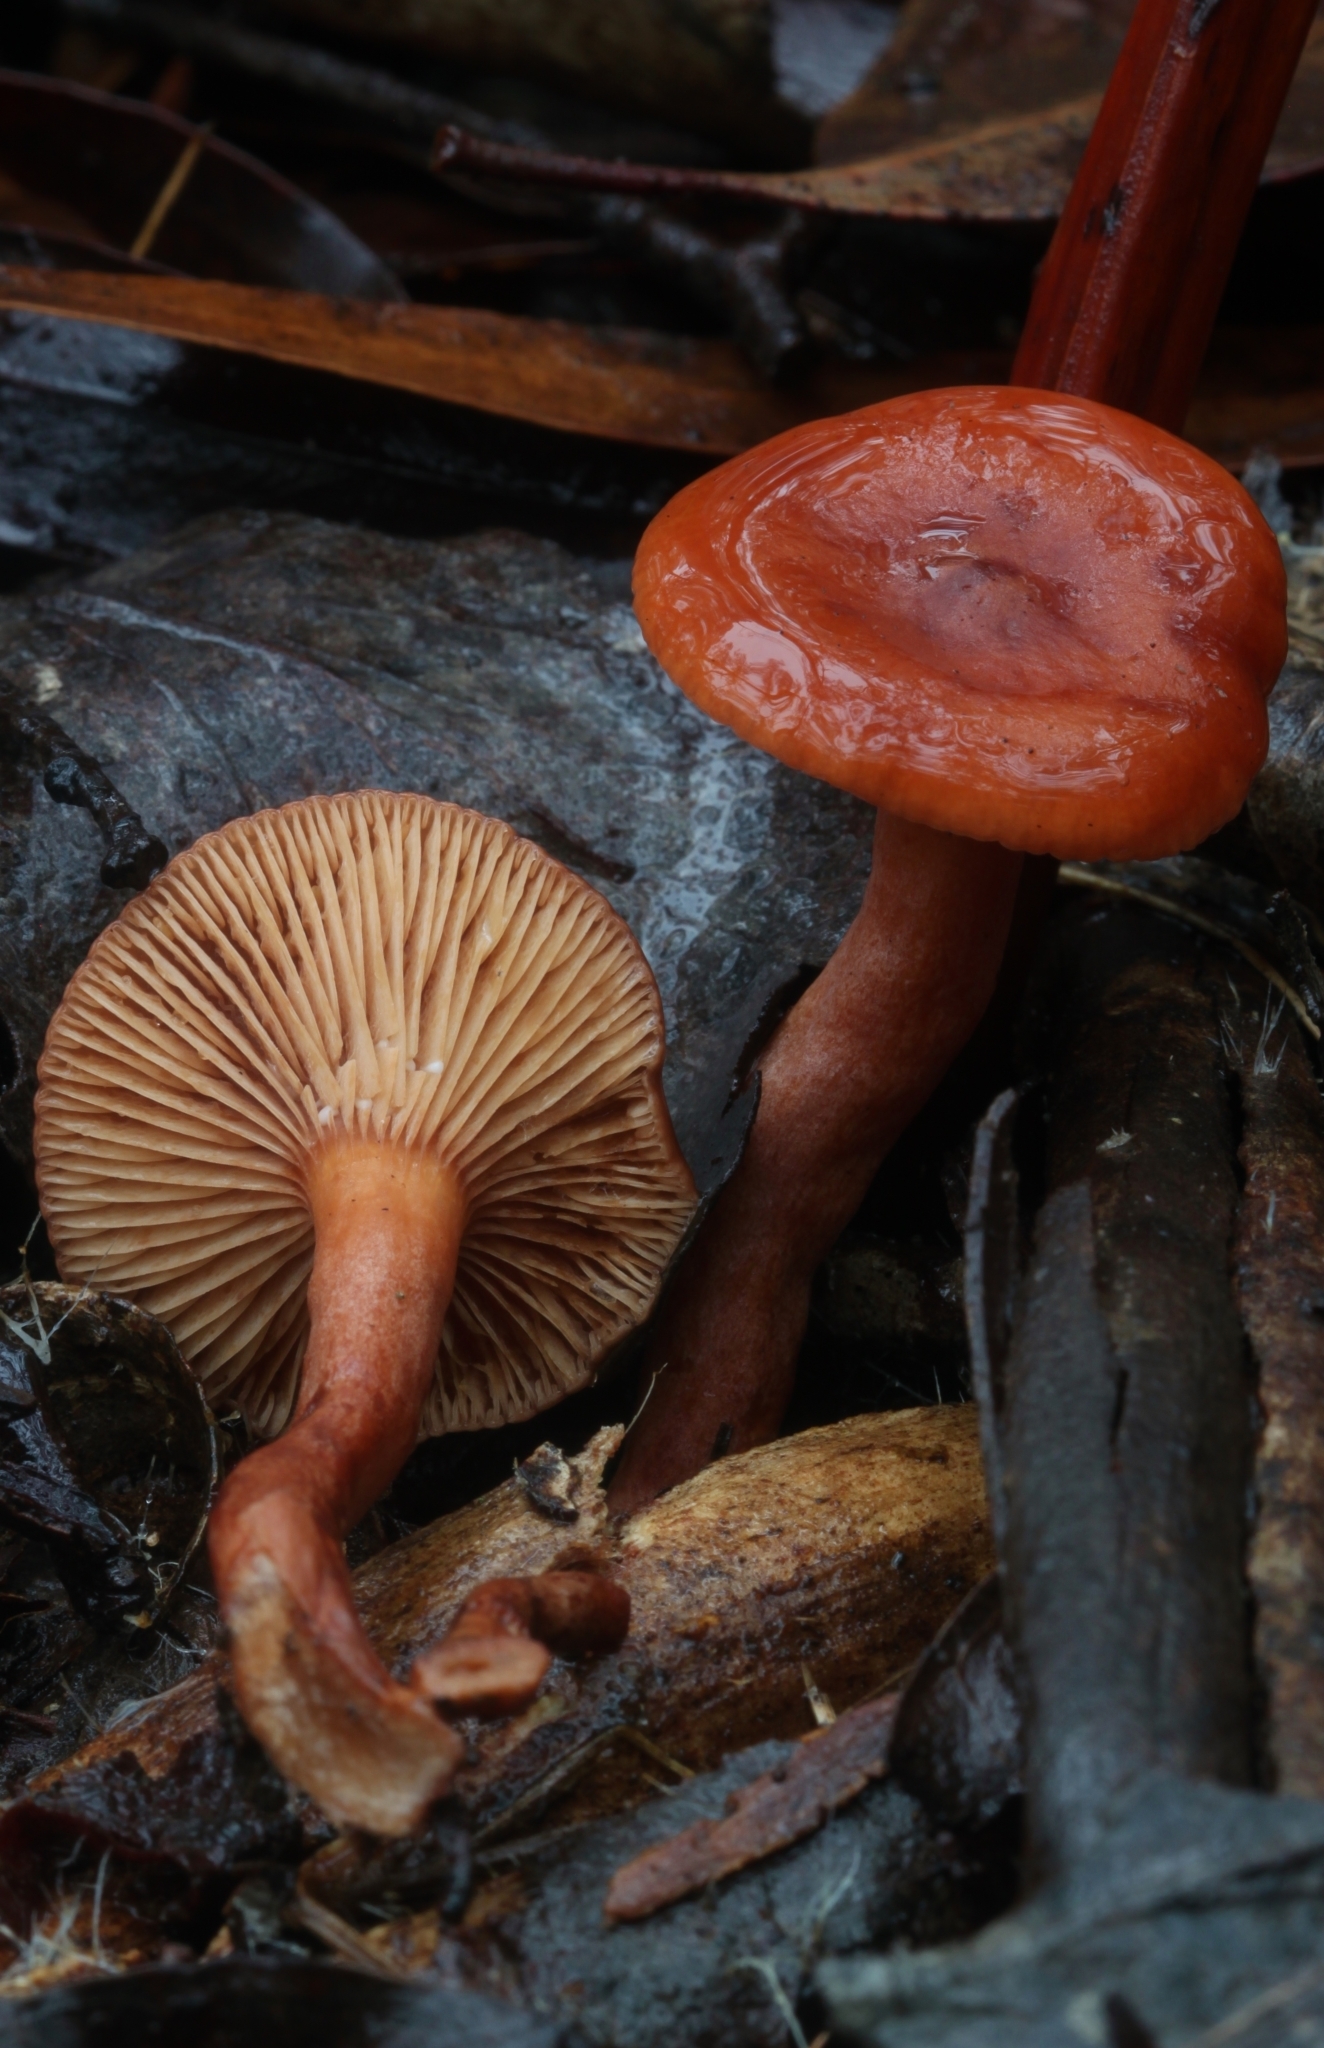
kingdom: Fungi
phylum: Basidiomycota
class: Agaricomycetes
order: Russulales
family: Russulaceae
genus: Lactarius
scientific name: Lactarius eucalypti
